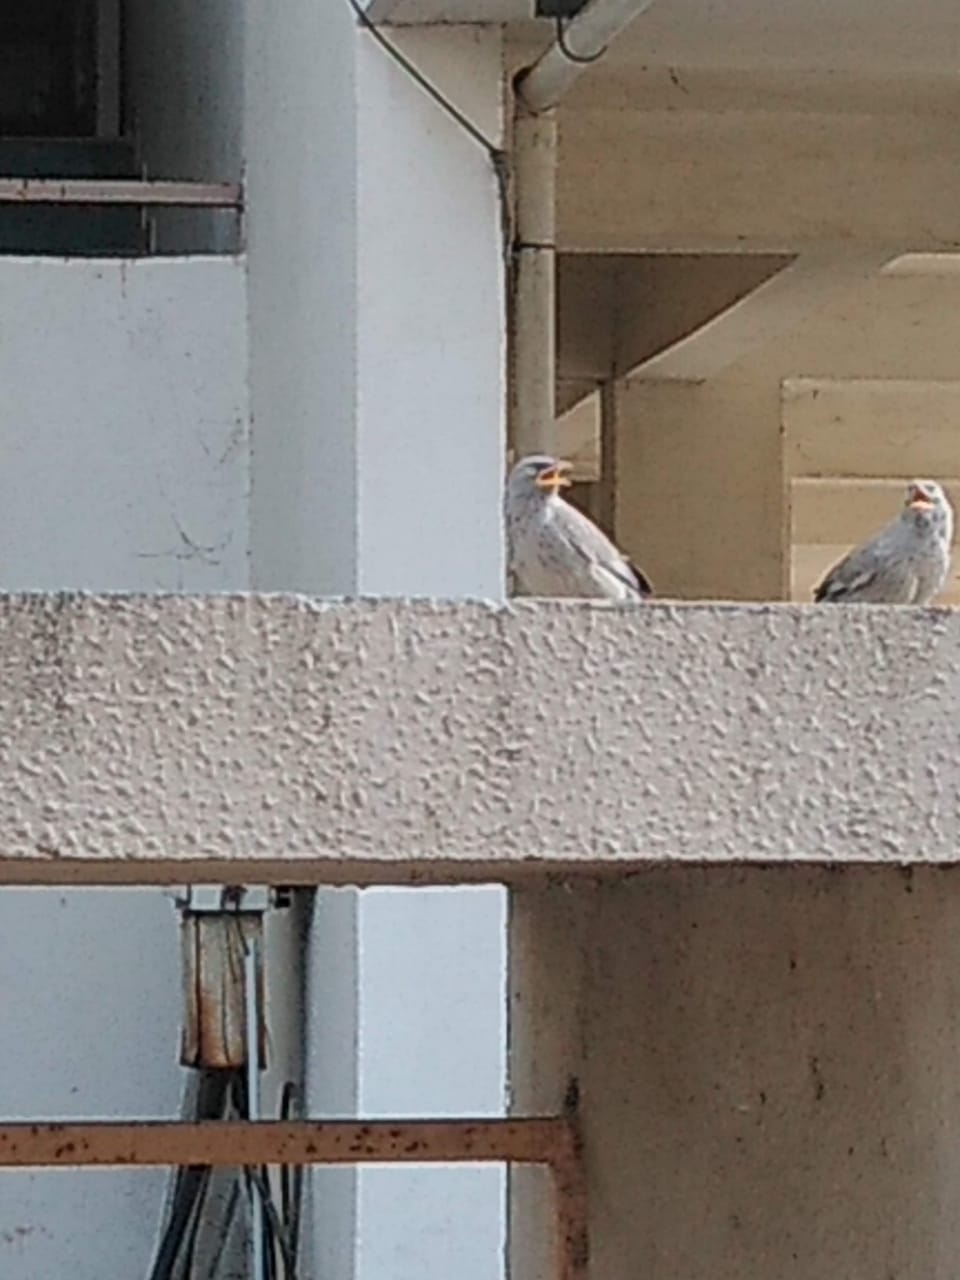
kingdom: Animalia
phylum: Chordata
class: Aves
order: Passeriformes
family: Leiothrichidae
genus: Turdoides
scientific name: Turdoides striata
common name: Jungle babbler
